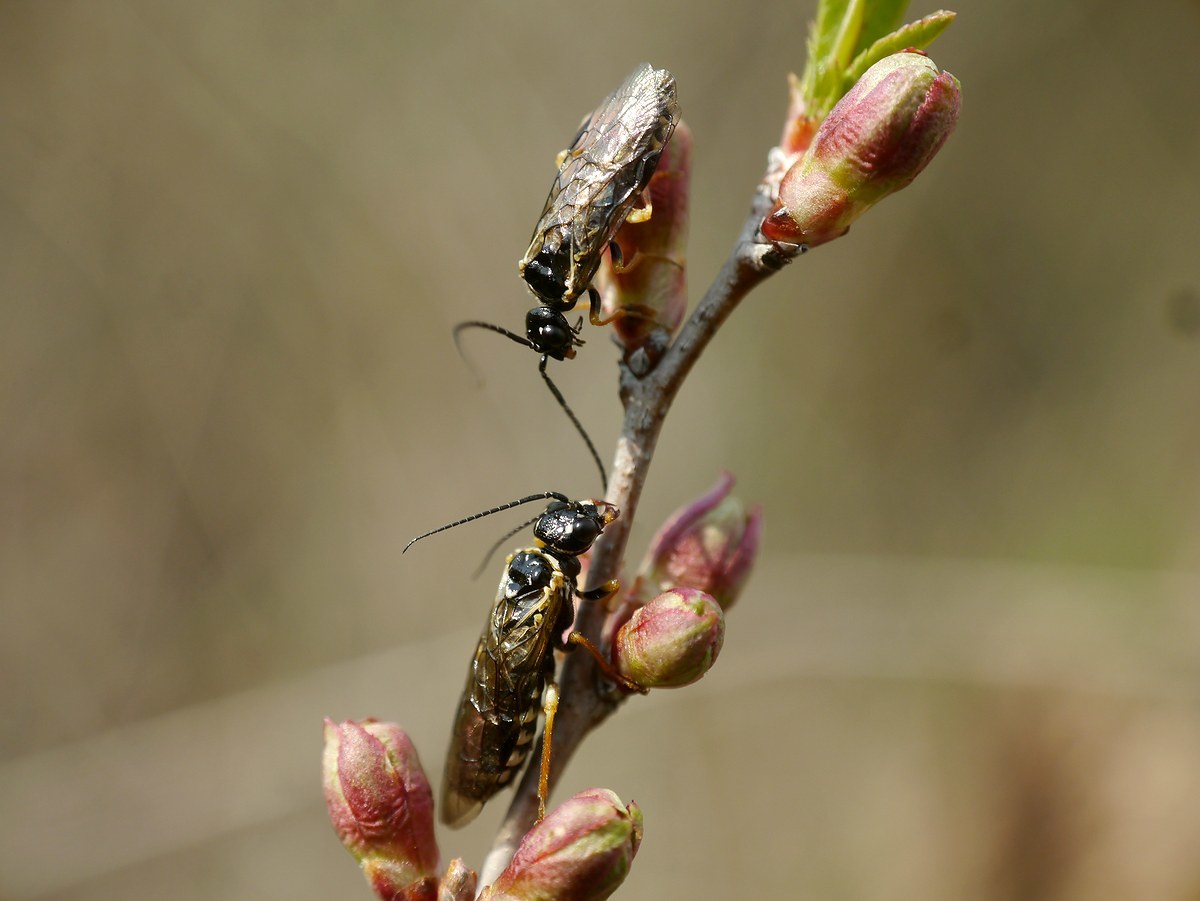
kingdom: Animalia
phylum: Arthropoda
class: Insecta
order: Hymenoptera
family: Pamphiliidae
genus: Neurotoma
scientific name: Neurotoma nemoralis
